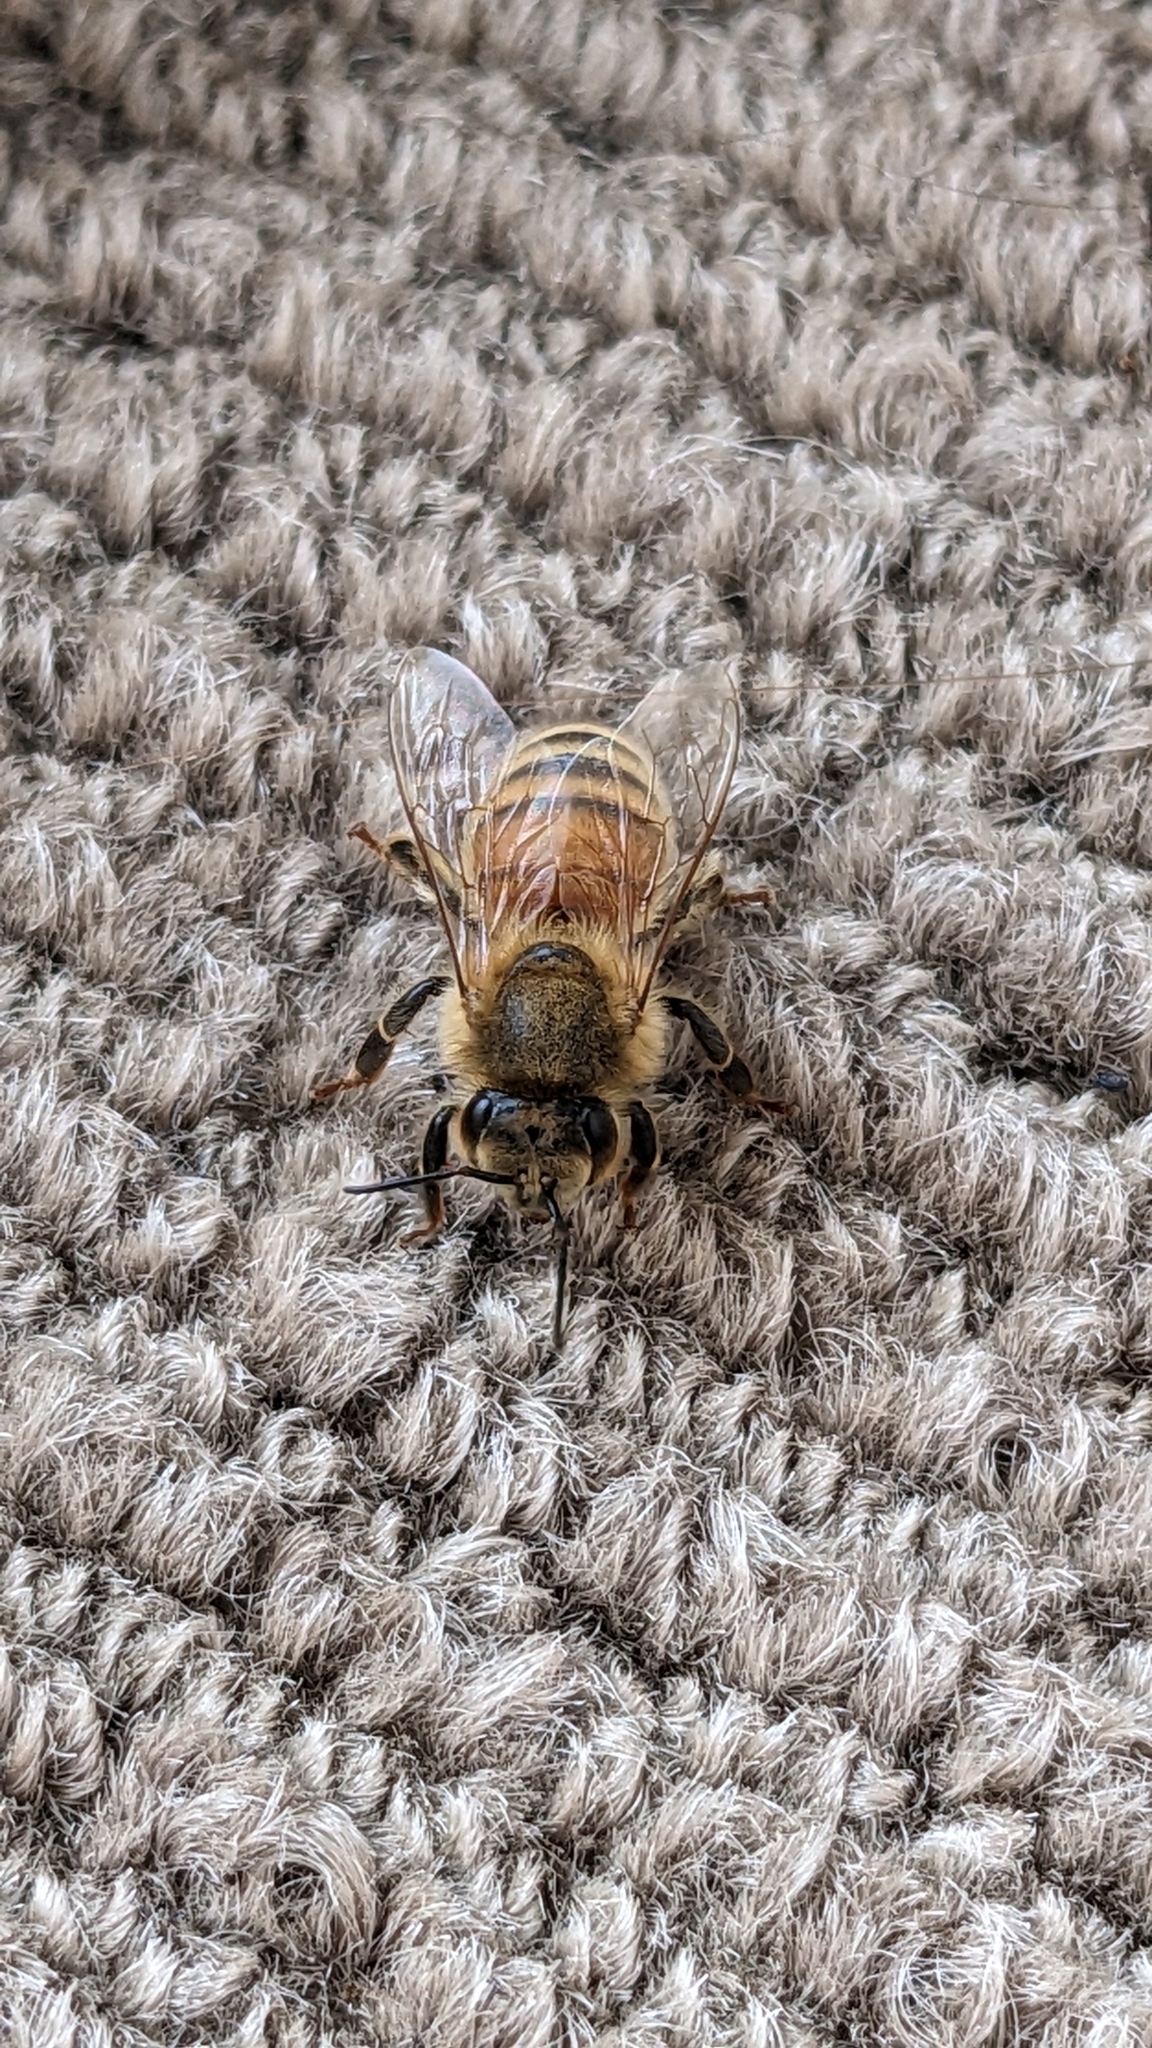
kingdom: Animalia
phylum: Arthropoda
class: Insecta
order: Hymenoptera
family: Apidae
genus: Apis
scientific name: Apis mellifera
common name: Honey bee
